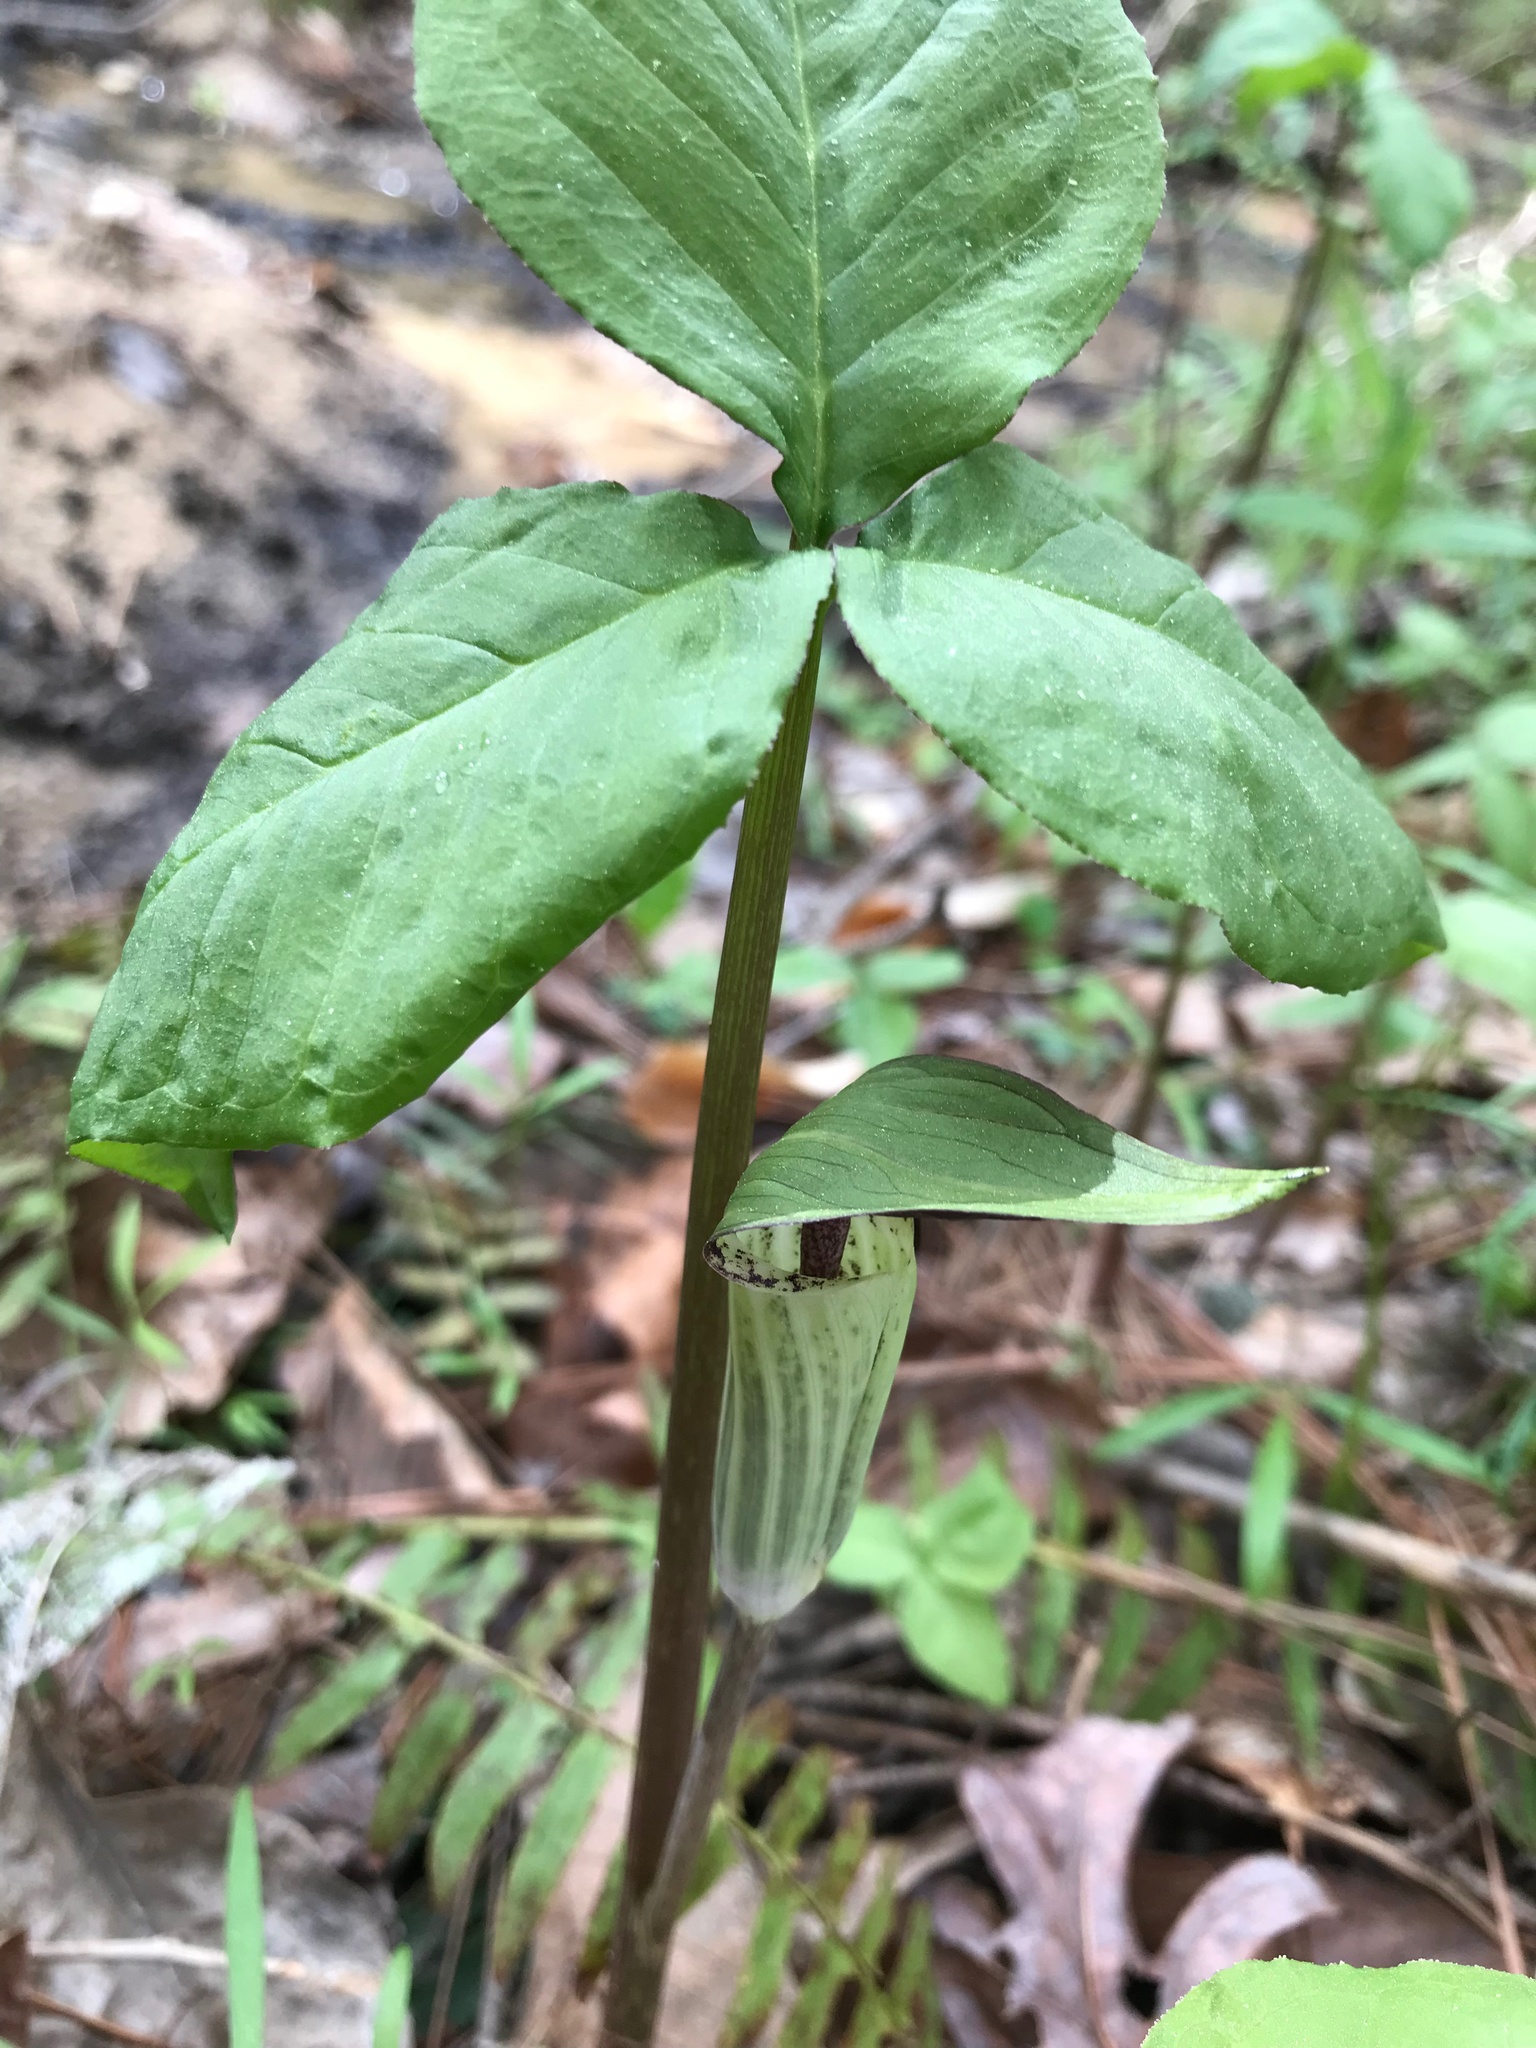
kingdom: Plantae
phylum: Tracheophyta
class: Liliopsida
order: Alismatales
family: Araceae
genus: Arisaema
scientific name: Arisaema triphyllum
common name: Jack-in-the-pulpit
